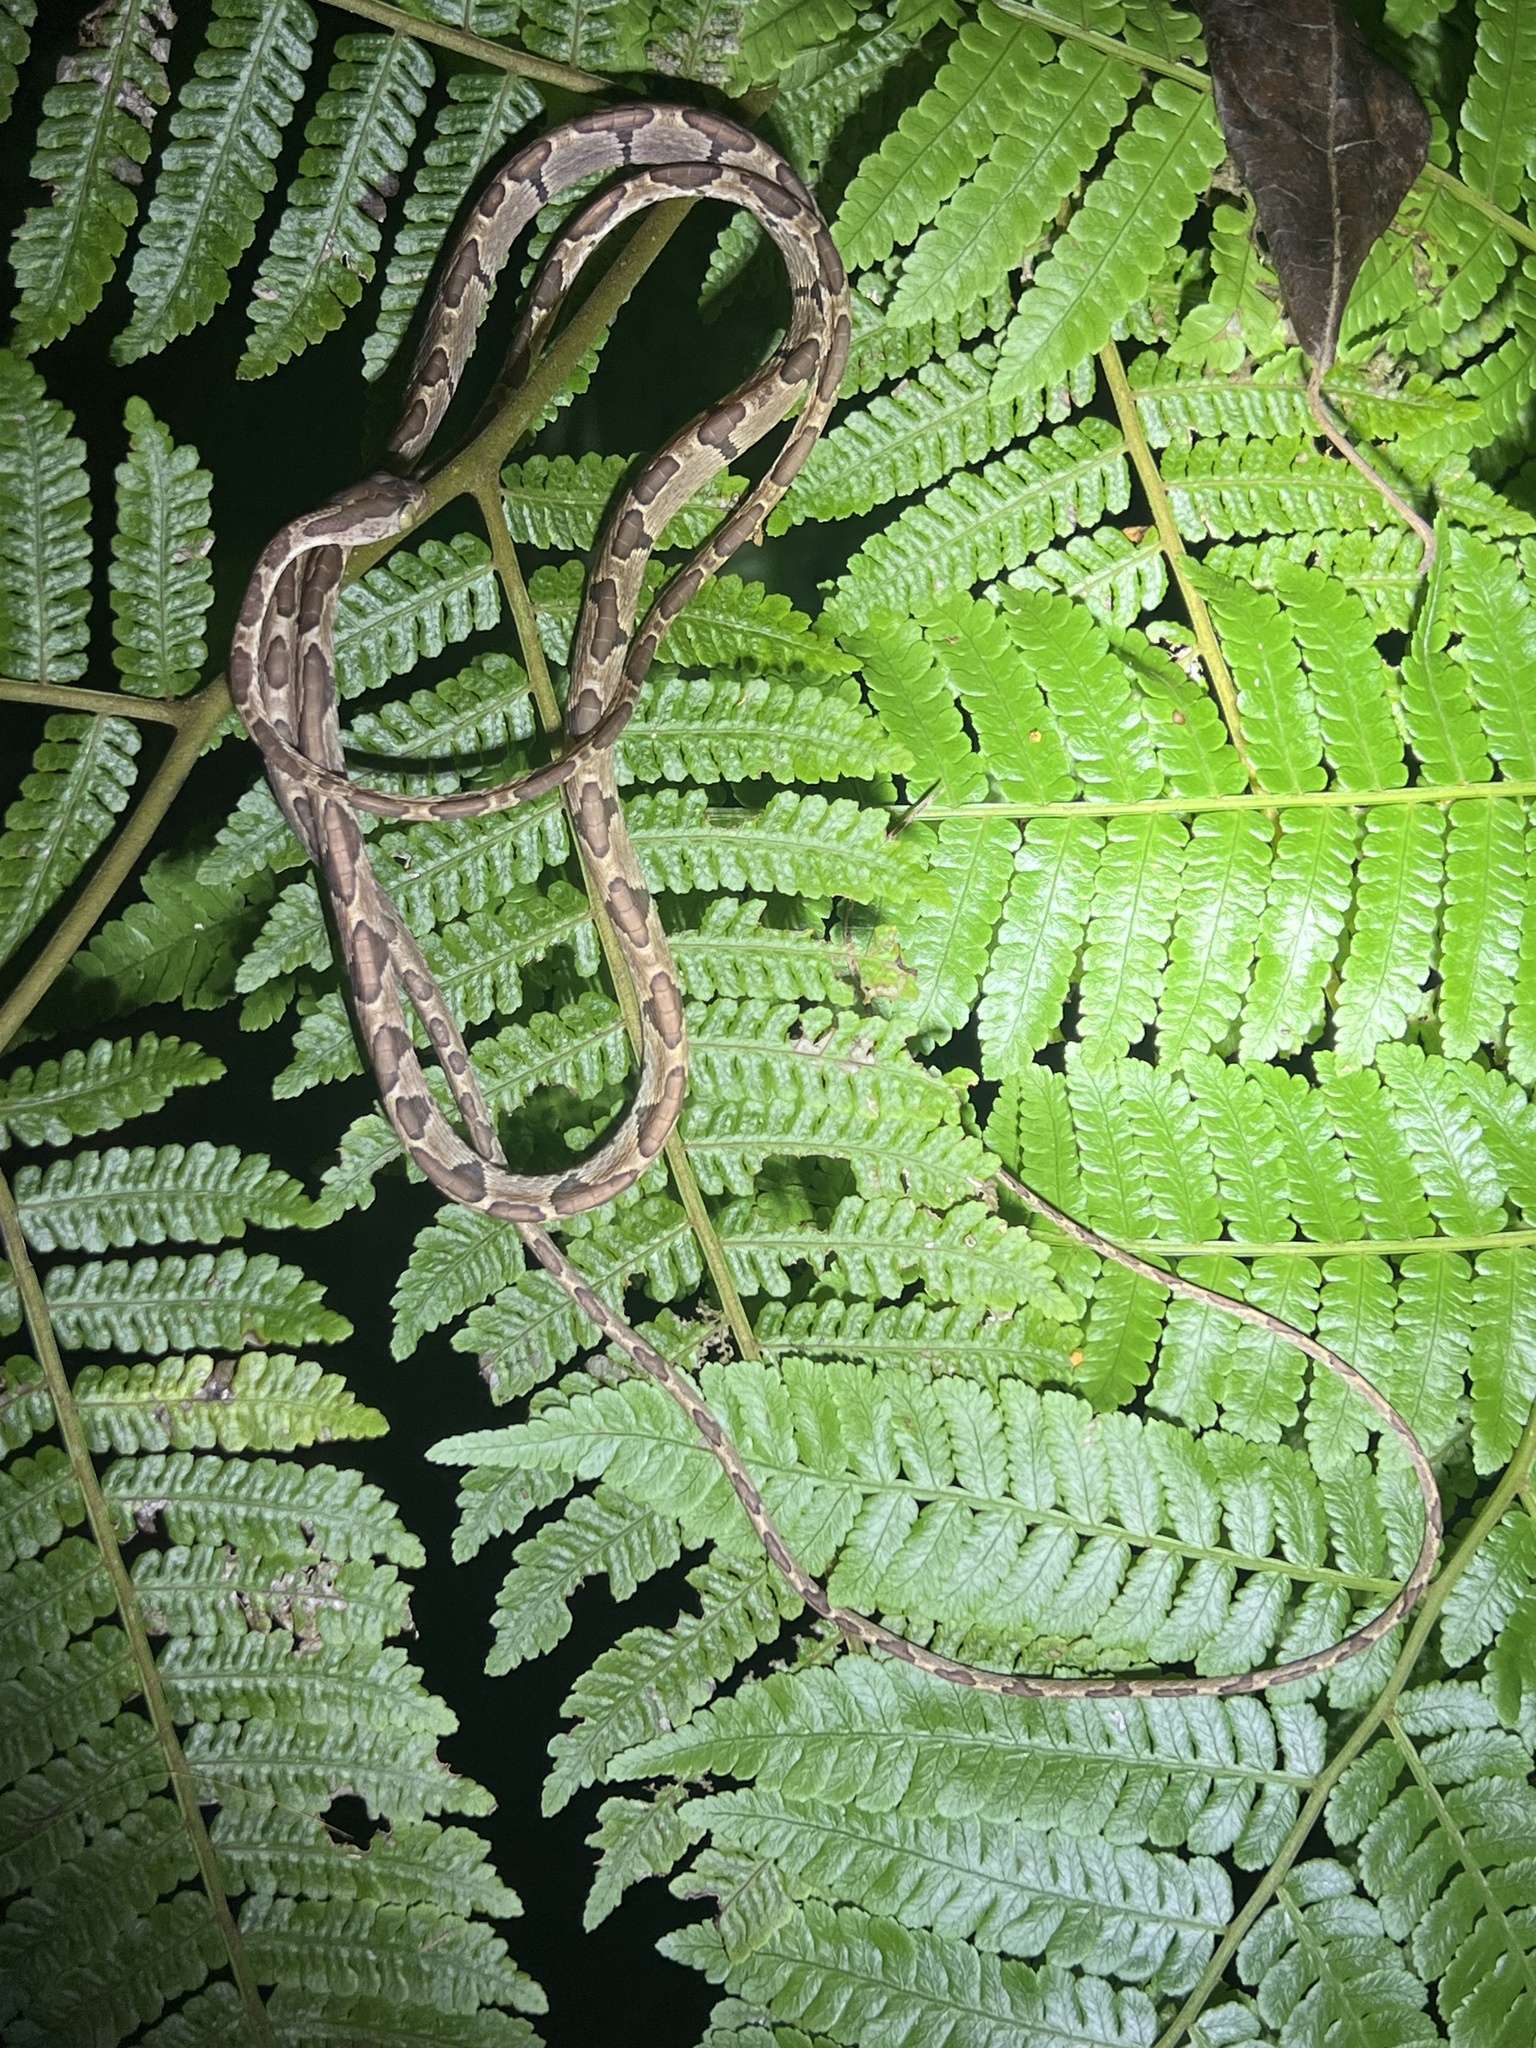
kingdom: Animalia
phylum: Chordata
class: Squamata
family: Colubridae
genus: Imantodes
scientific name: Imantodes cenchoa
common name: Blunthead tree snake
